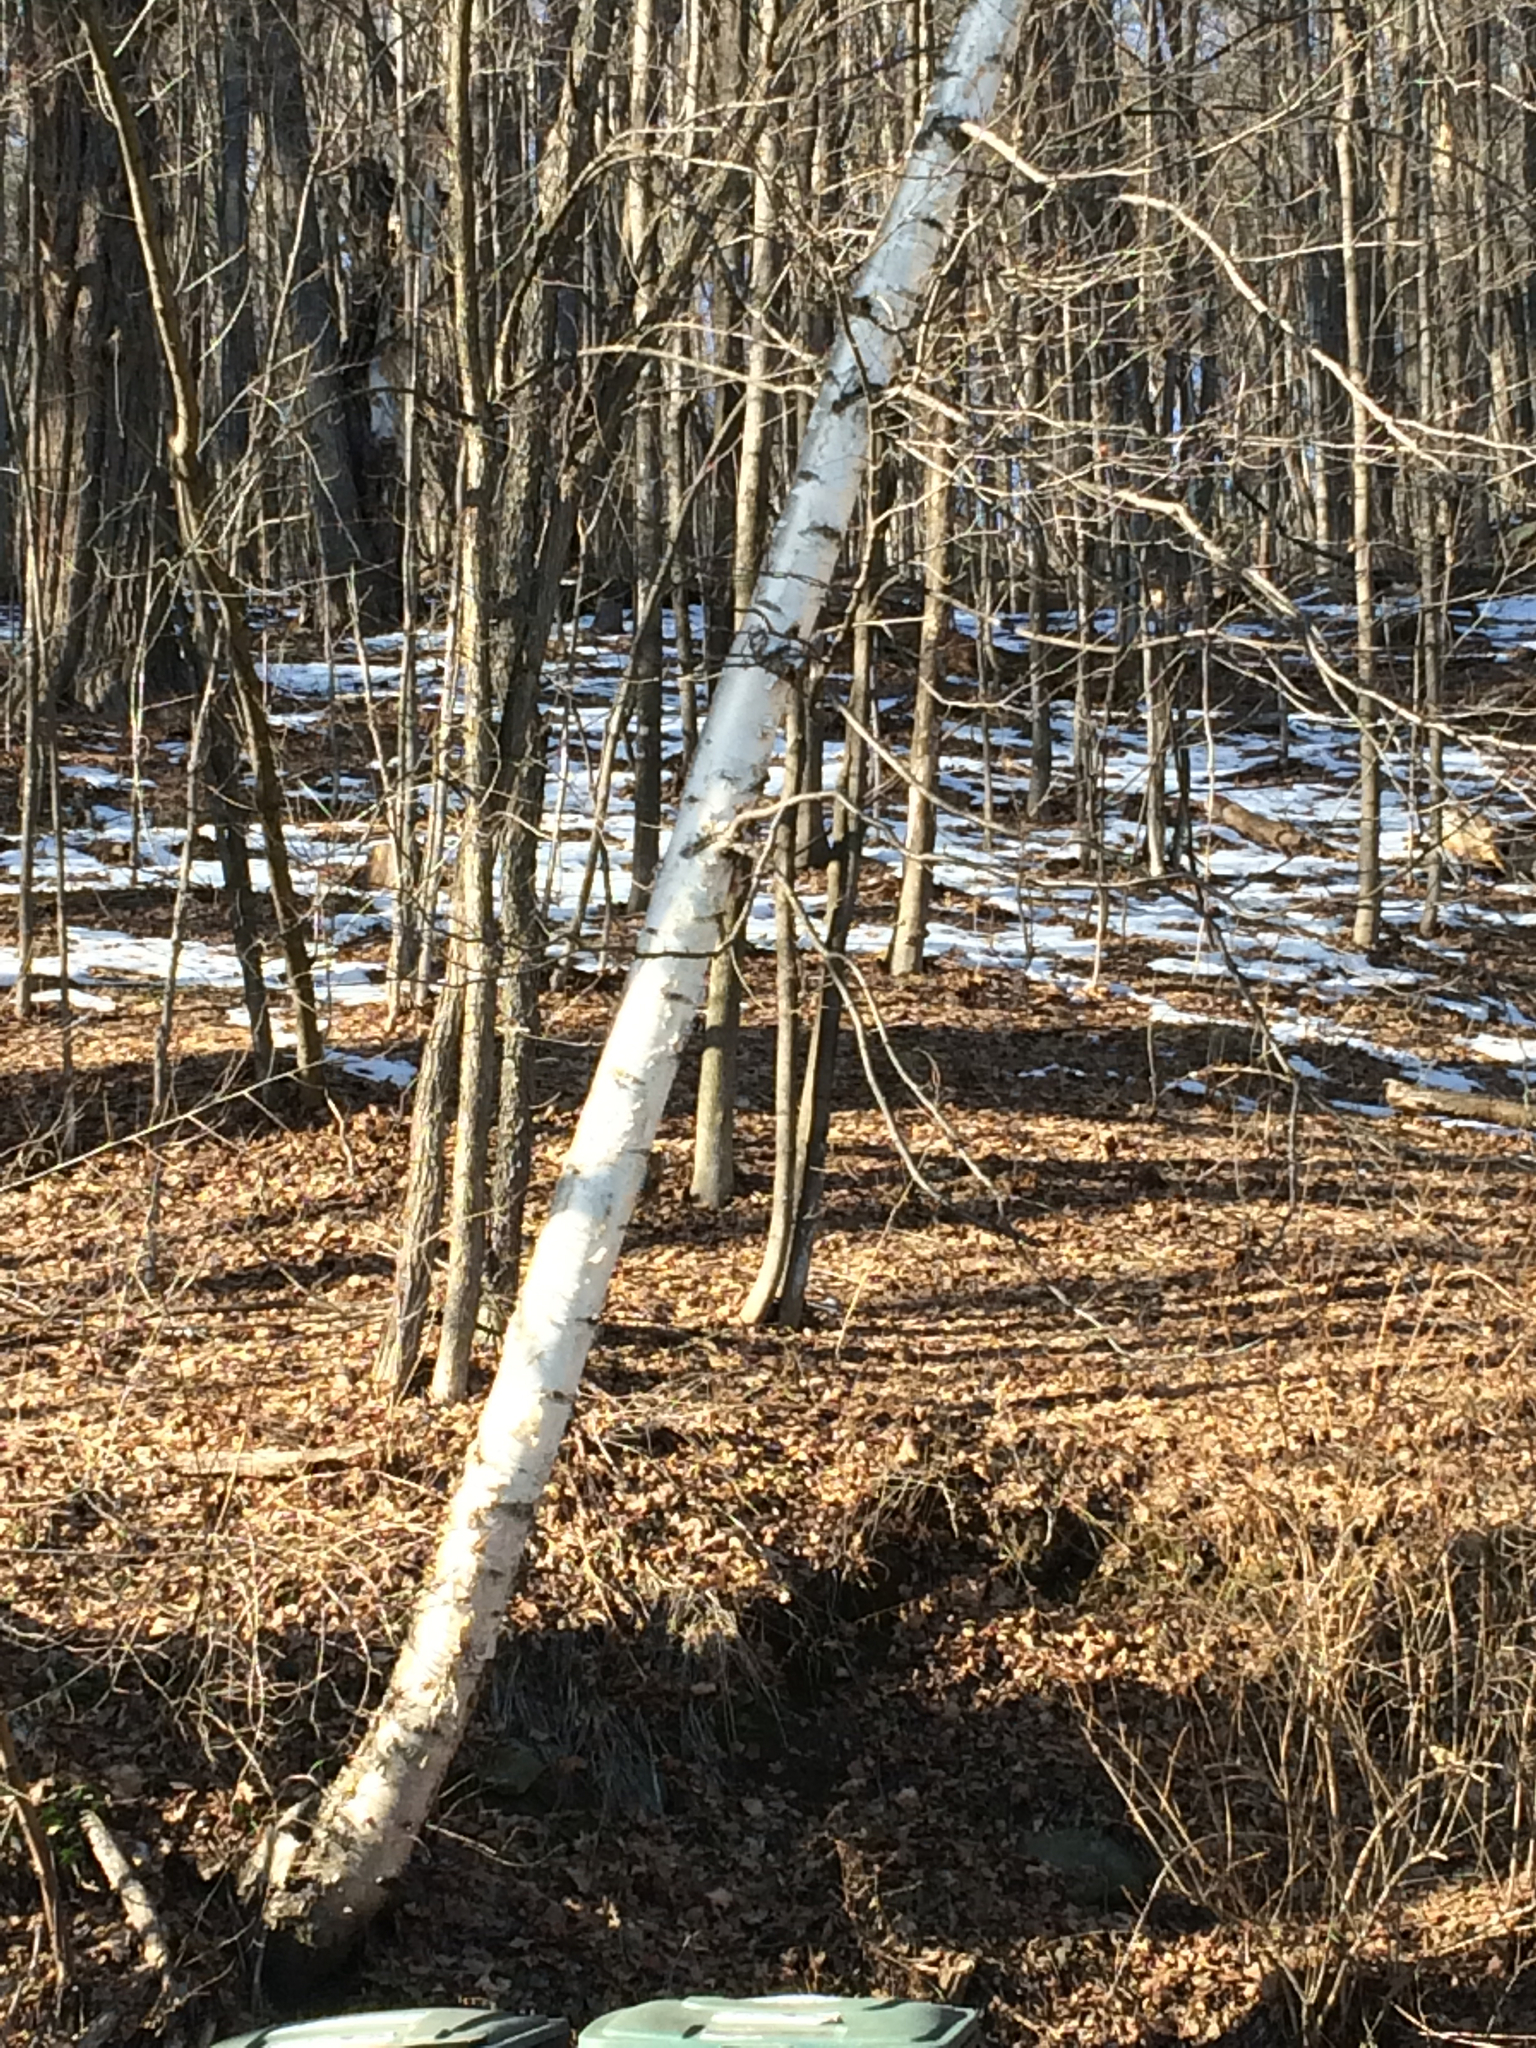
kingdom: Plantae
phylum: Tracheophyta
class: Magnoliopsida
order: Fagales
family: Betulaceae
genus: Betula
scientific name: Betula papyrifera
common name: Paper birch
